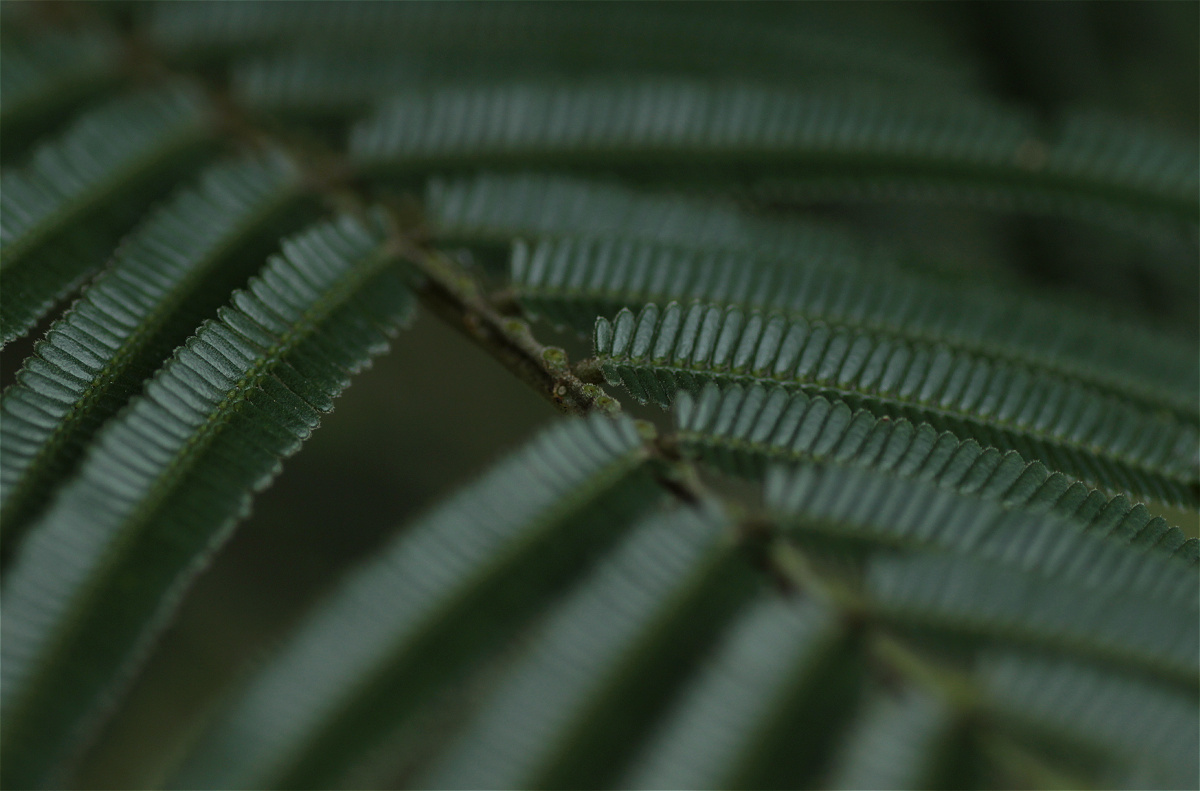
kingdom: Plantae
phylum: Tracheophyta
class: Magnoliopsida
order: Fabales
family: Fabaceae
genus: Acacia
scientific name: Acacia mearnsii
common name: Black wattle
